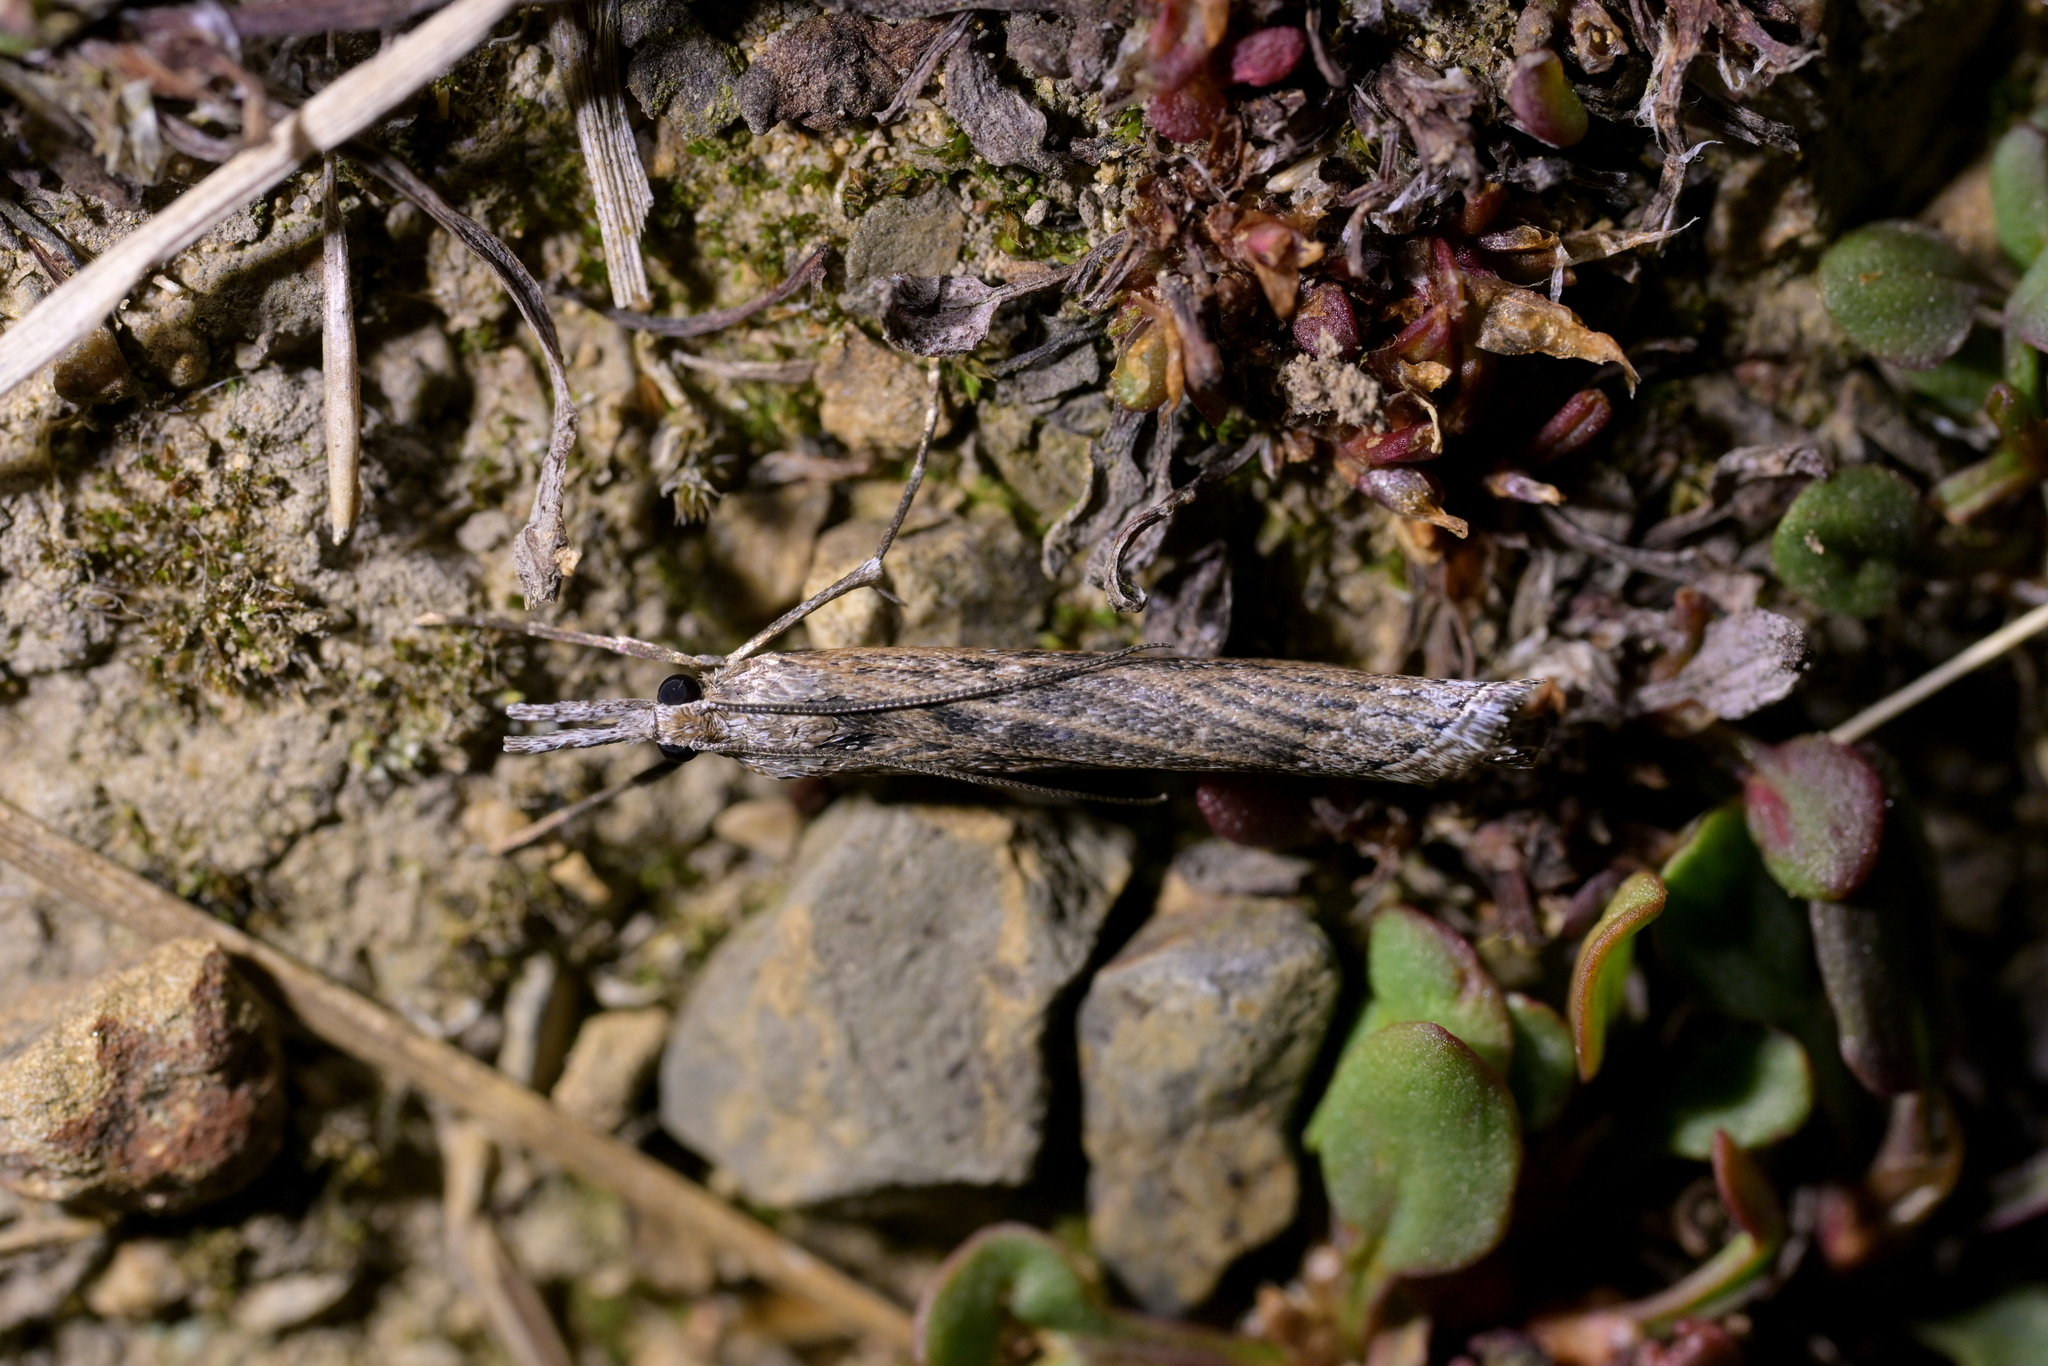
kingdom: Animalia
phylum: Arthropoda
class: Insecta
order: Lepidoptera
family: Crambidae
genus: Orocrambus
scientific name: Orocrambus cyclopicus
